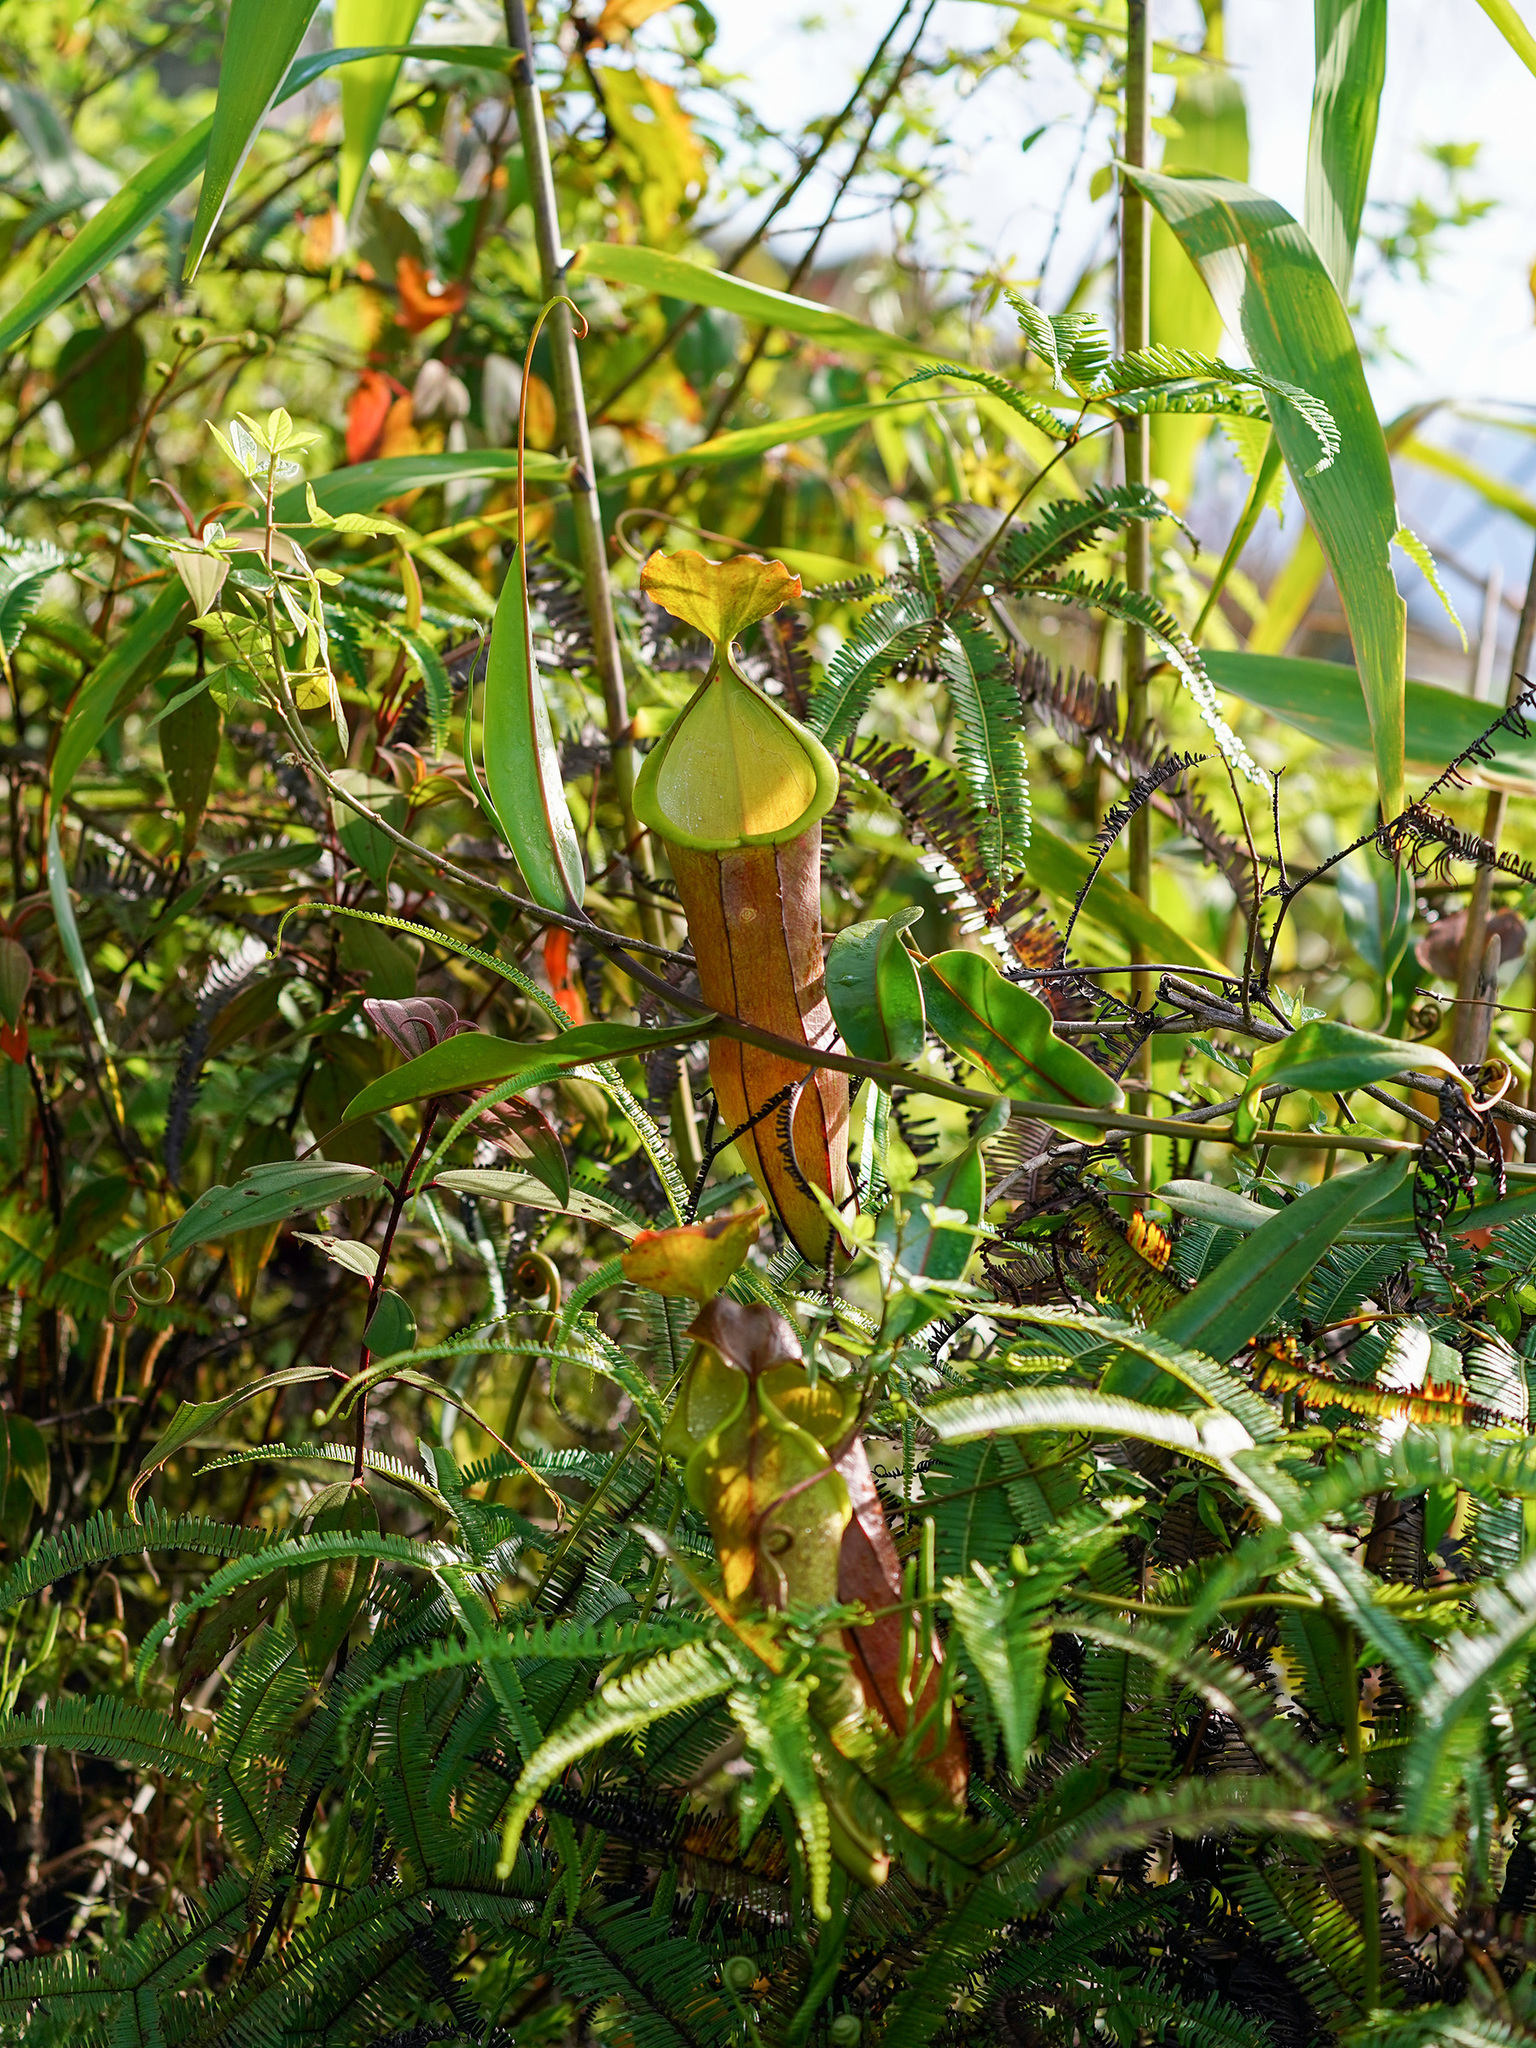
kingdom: Plantae
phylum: Tracheophyta
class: Magnoliopsida
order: Caryophyllales
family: Nepenthaceae
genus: Nepenthes
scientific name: Nepenthes sanguinea
